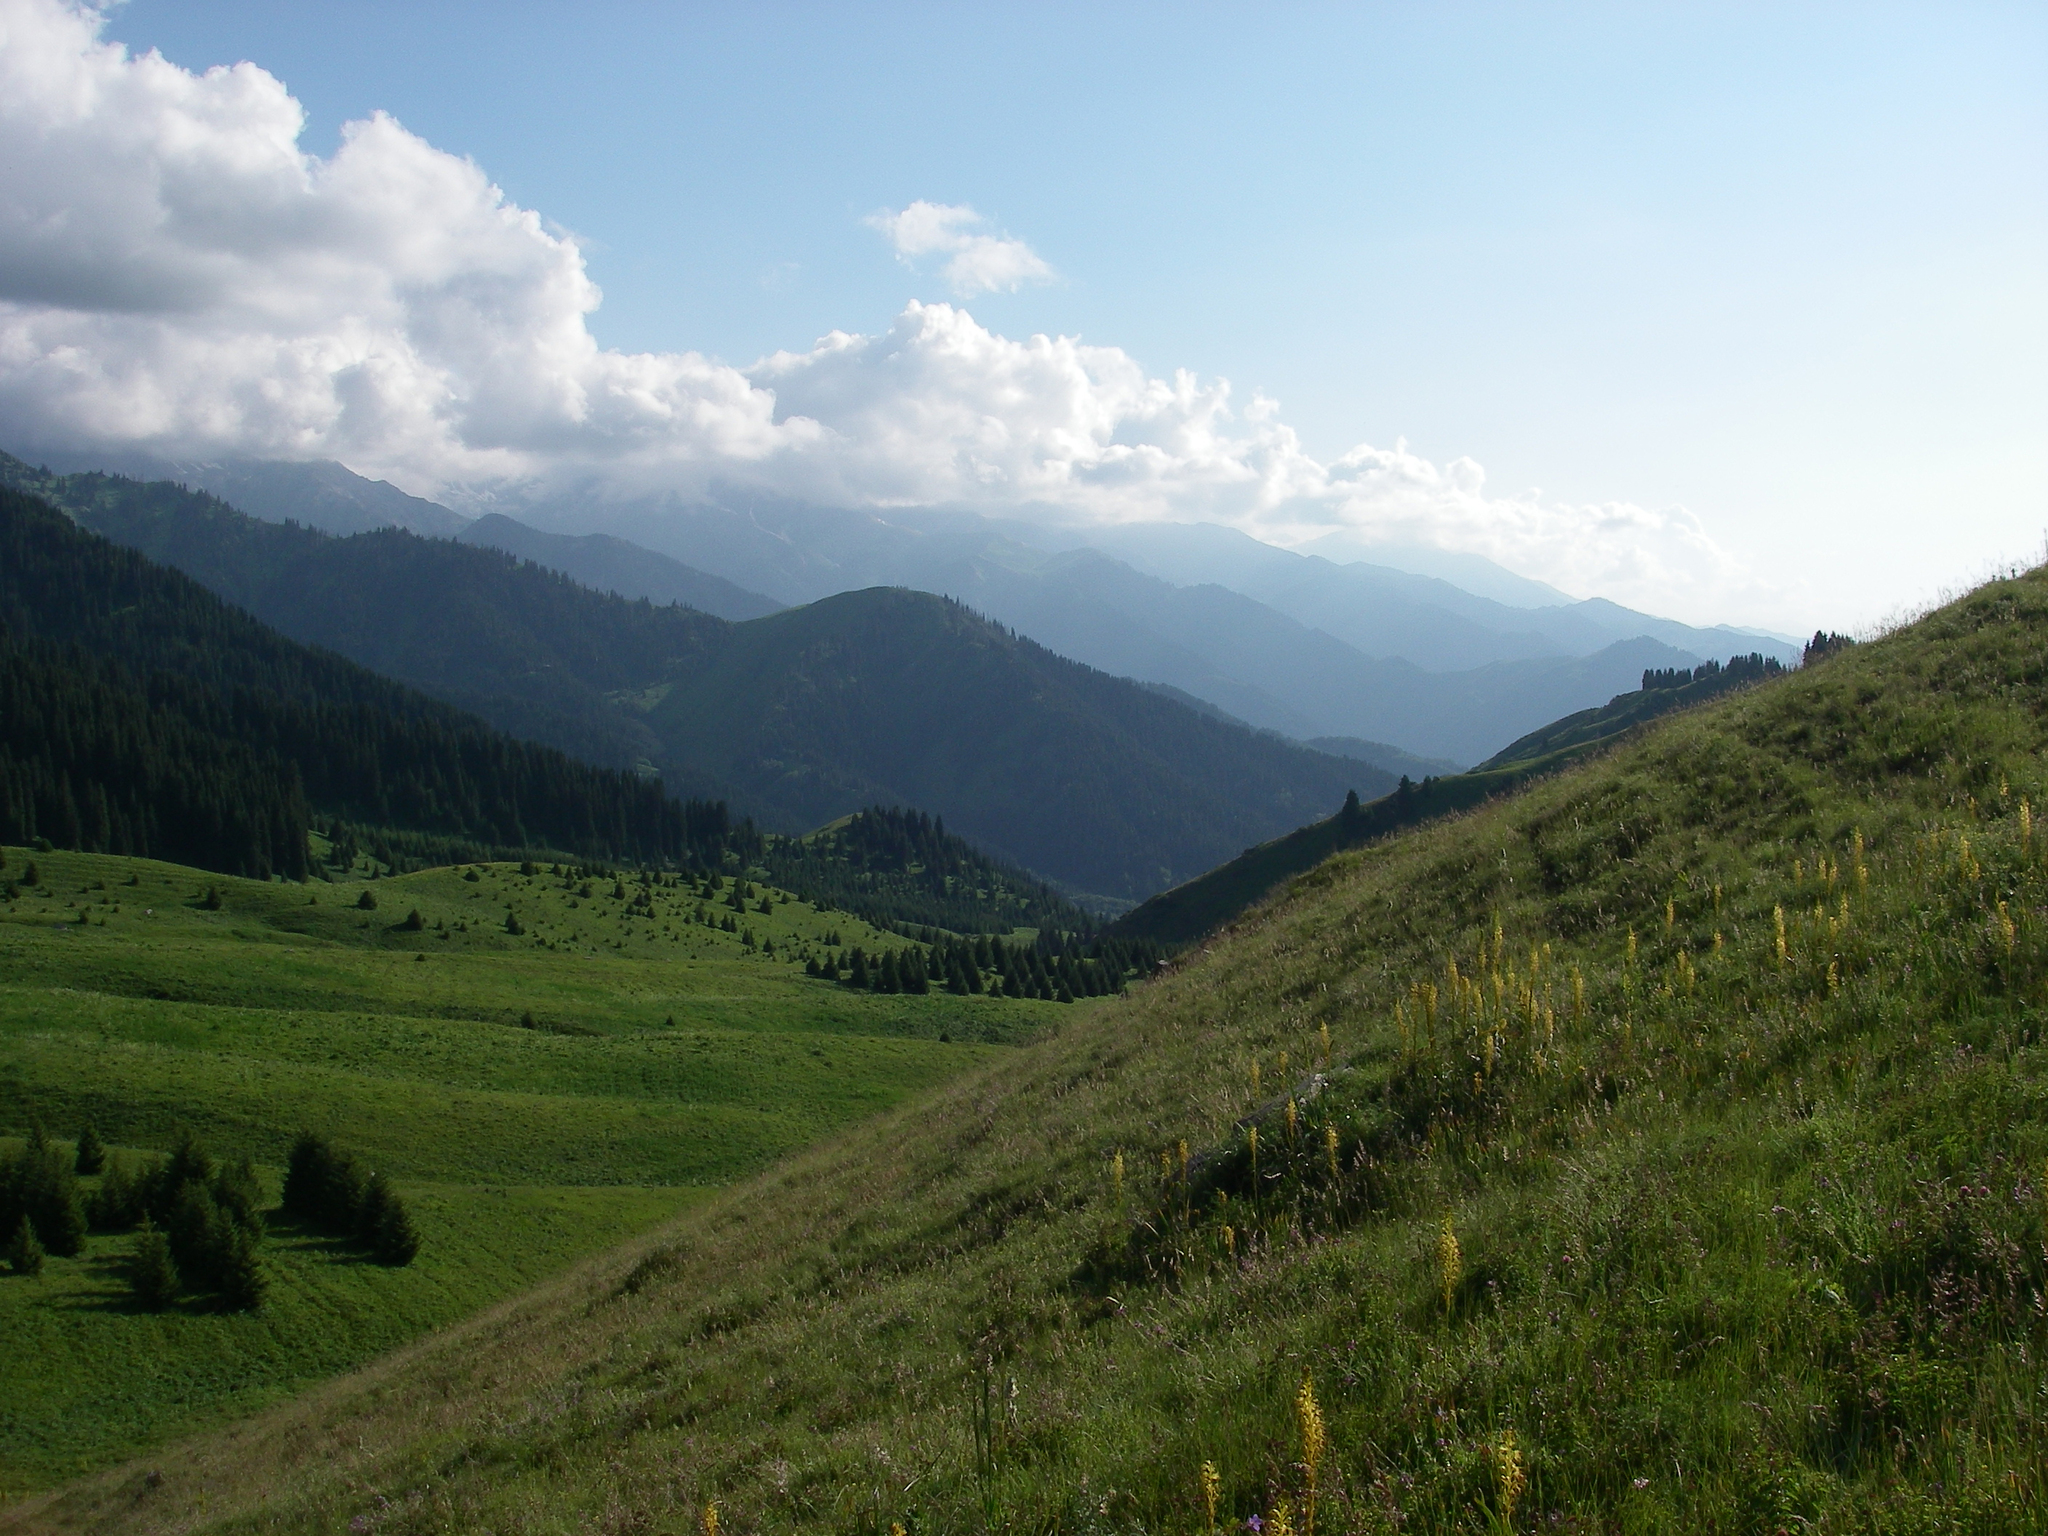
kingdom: Plantae
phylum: Tracheophyta
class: Pinopsida
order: Pinales
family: Pinaceae
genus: Picea
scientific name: Picea schrenkiana
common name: Asian spruce
